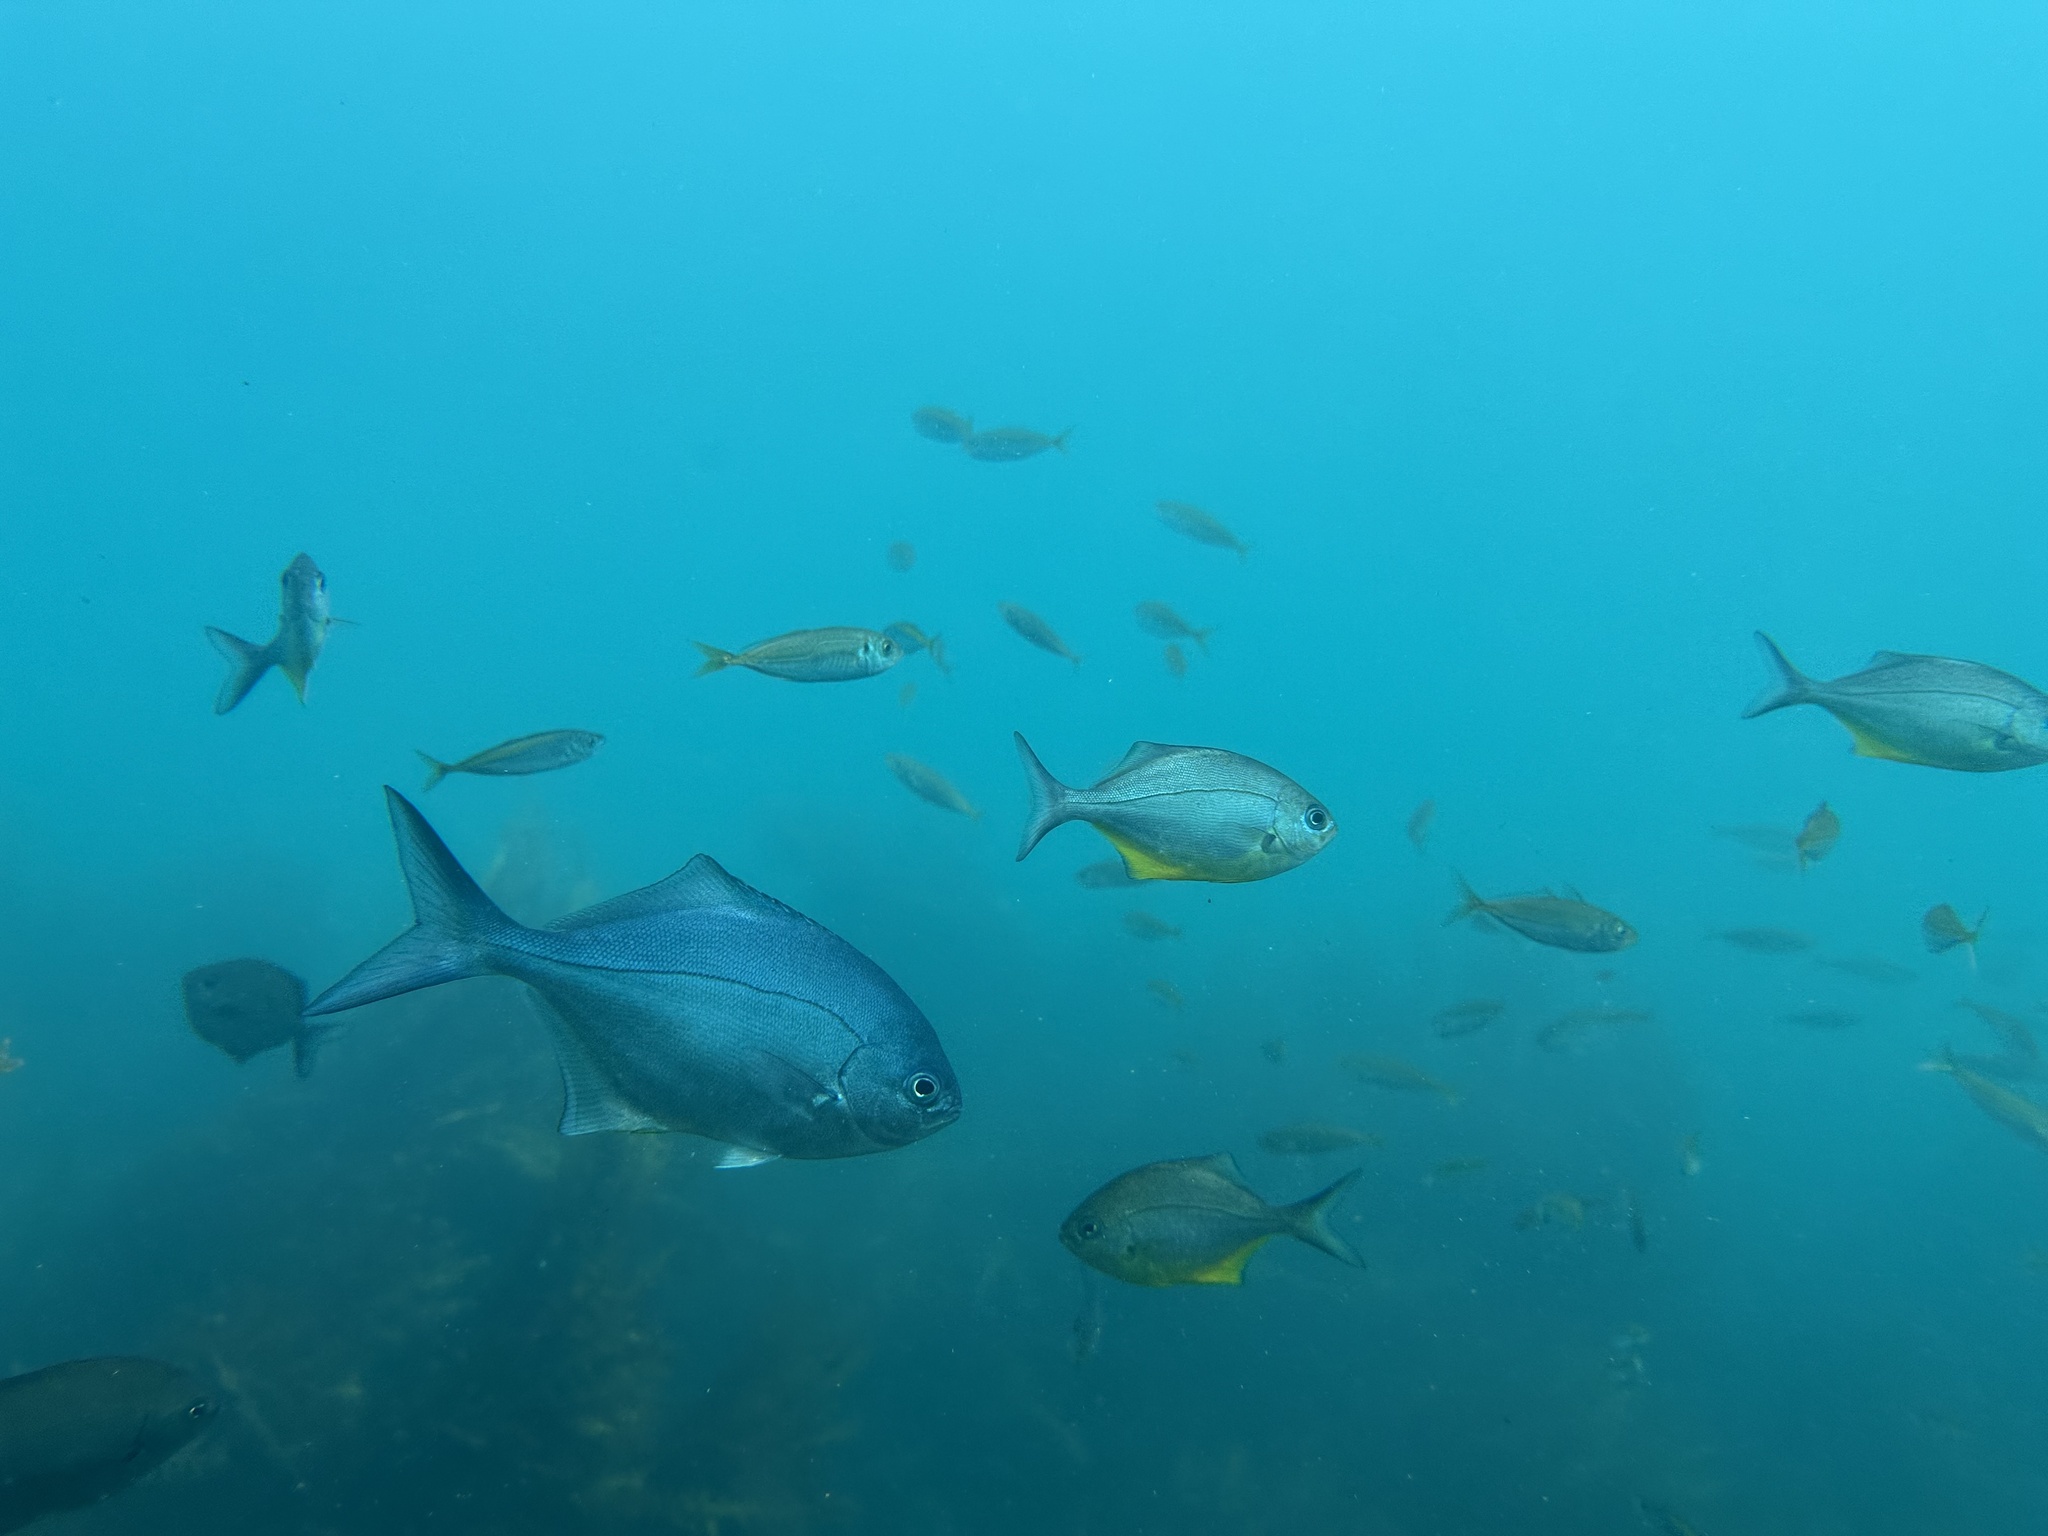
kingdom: Animalia
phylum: Chordata
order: Perciformes
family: Kyphosidae
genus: Scorpis
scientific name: Scorpis violacea
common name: Blue maomao
